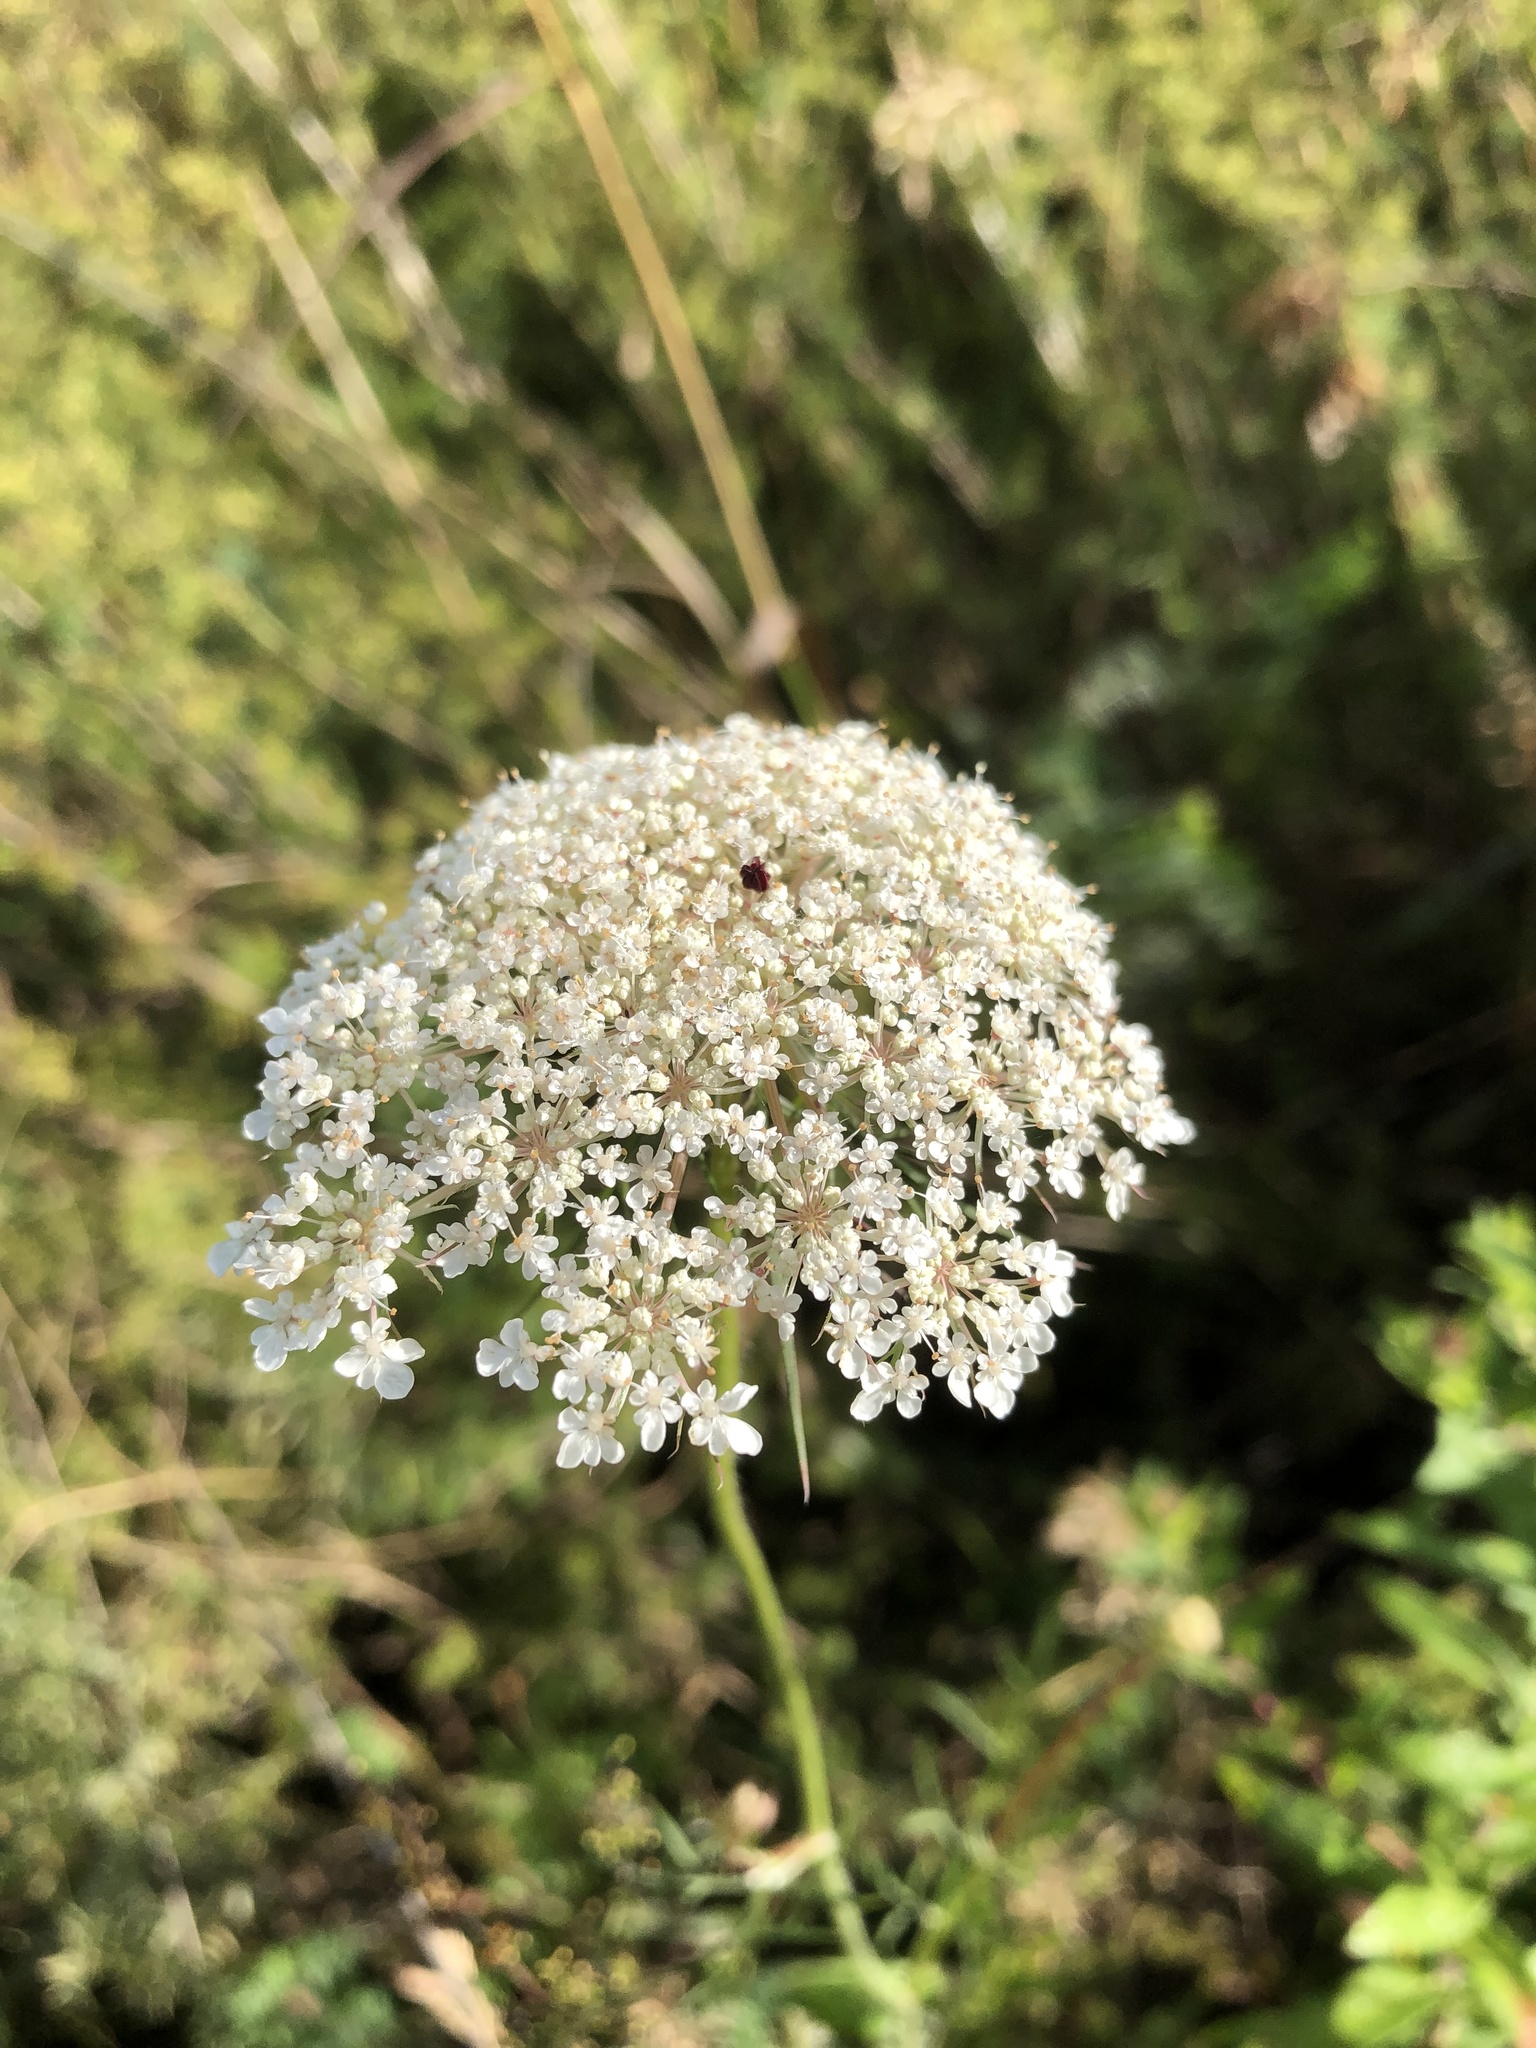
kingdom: Plantae
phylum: Tracheophyta
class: Magnoliopsida
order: Apiales
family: Apiaceae
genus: Daucus
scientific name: Daucus carota
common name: Wild carrot
